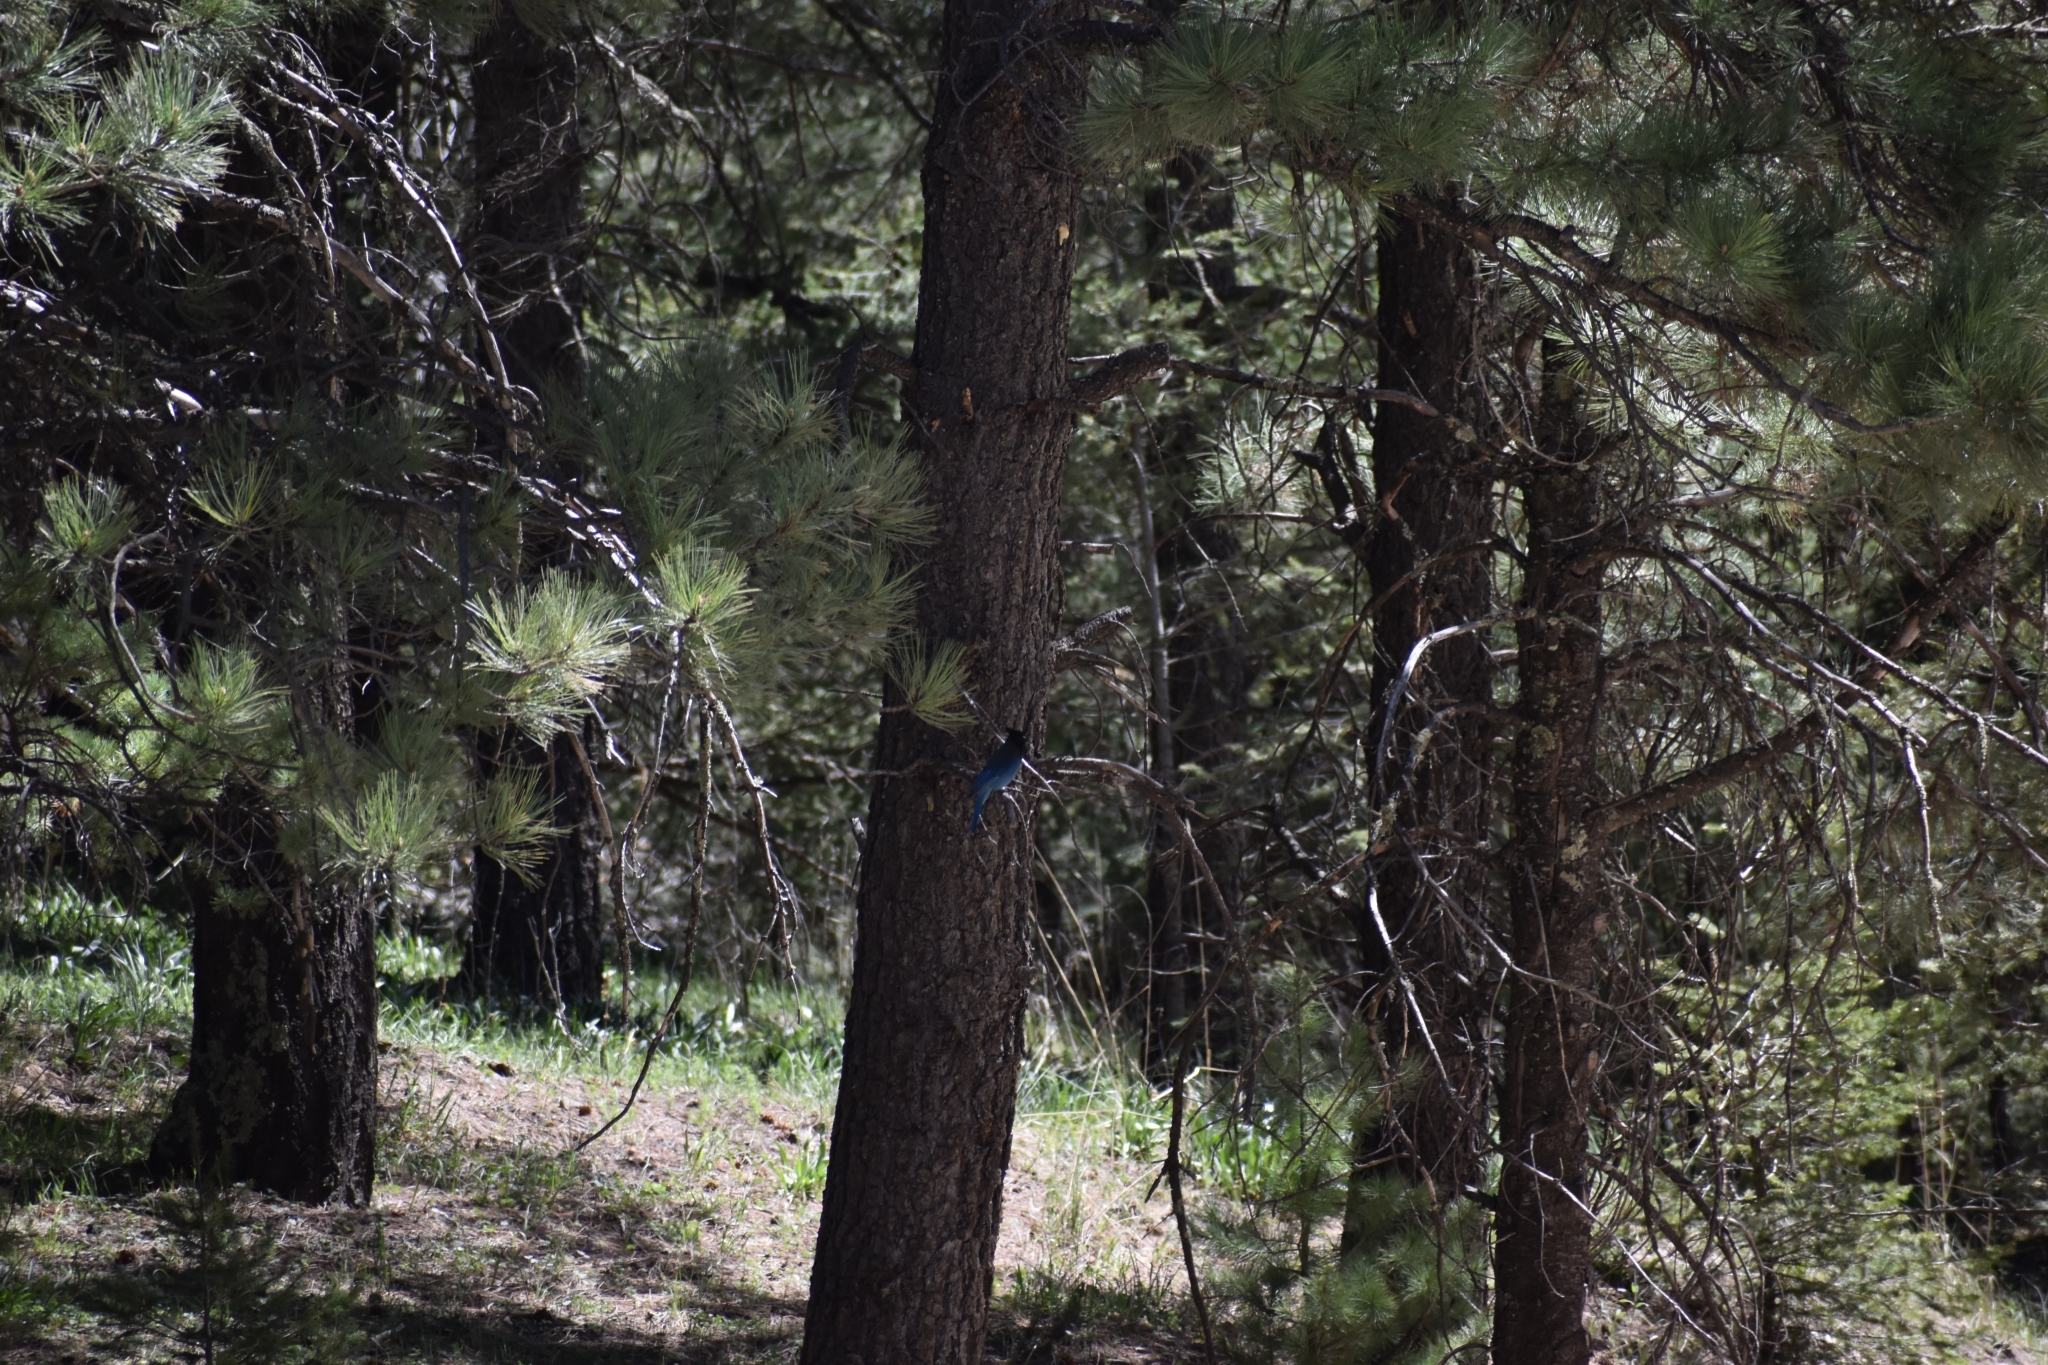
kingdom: Animalia
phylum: Chordata
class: Aves
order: Passeriformes
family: Corvidae
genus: Cyanocitta
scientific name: Cyanocitta stelleri
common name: Steller's jay
